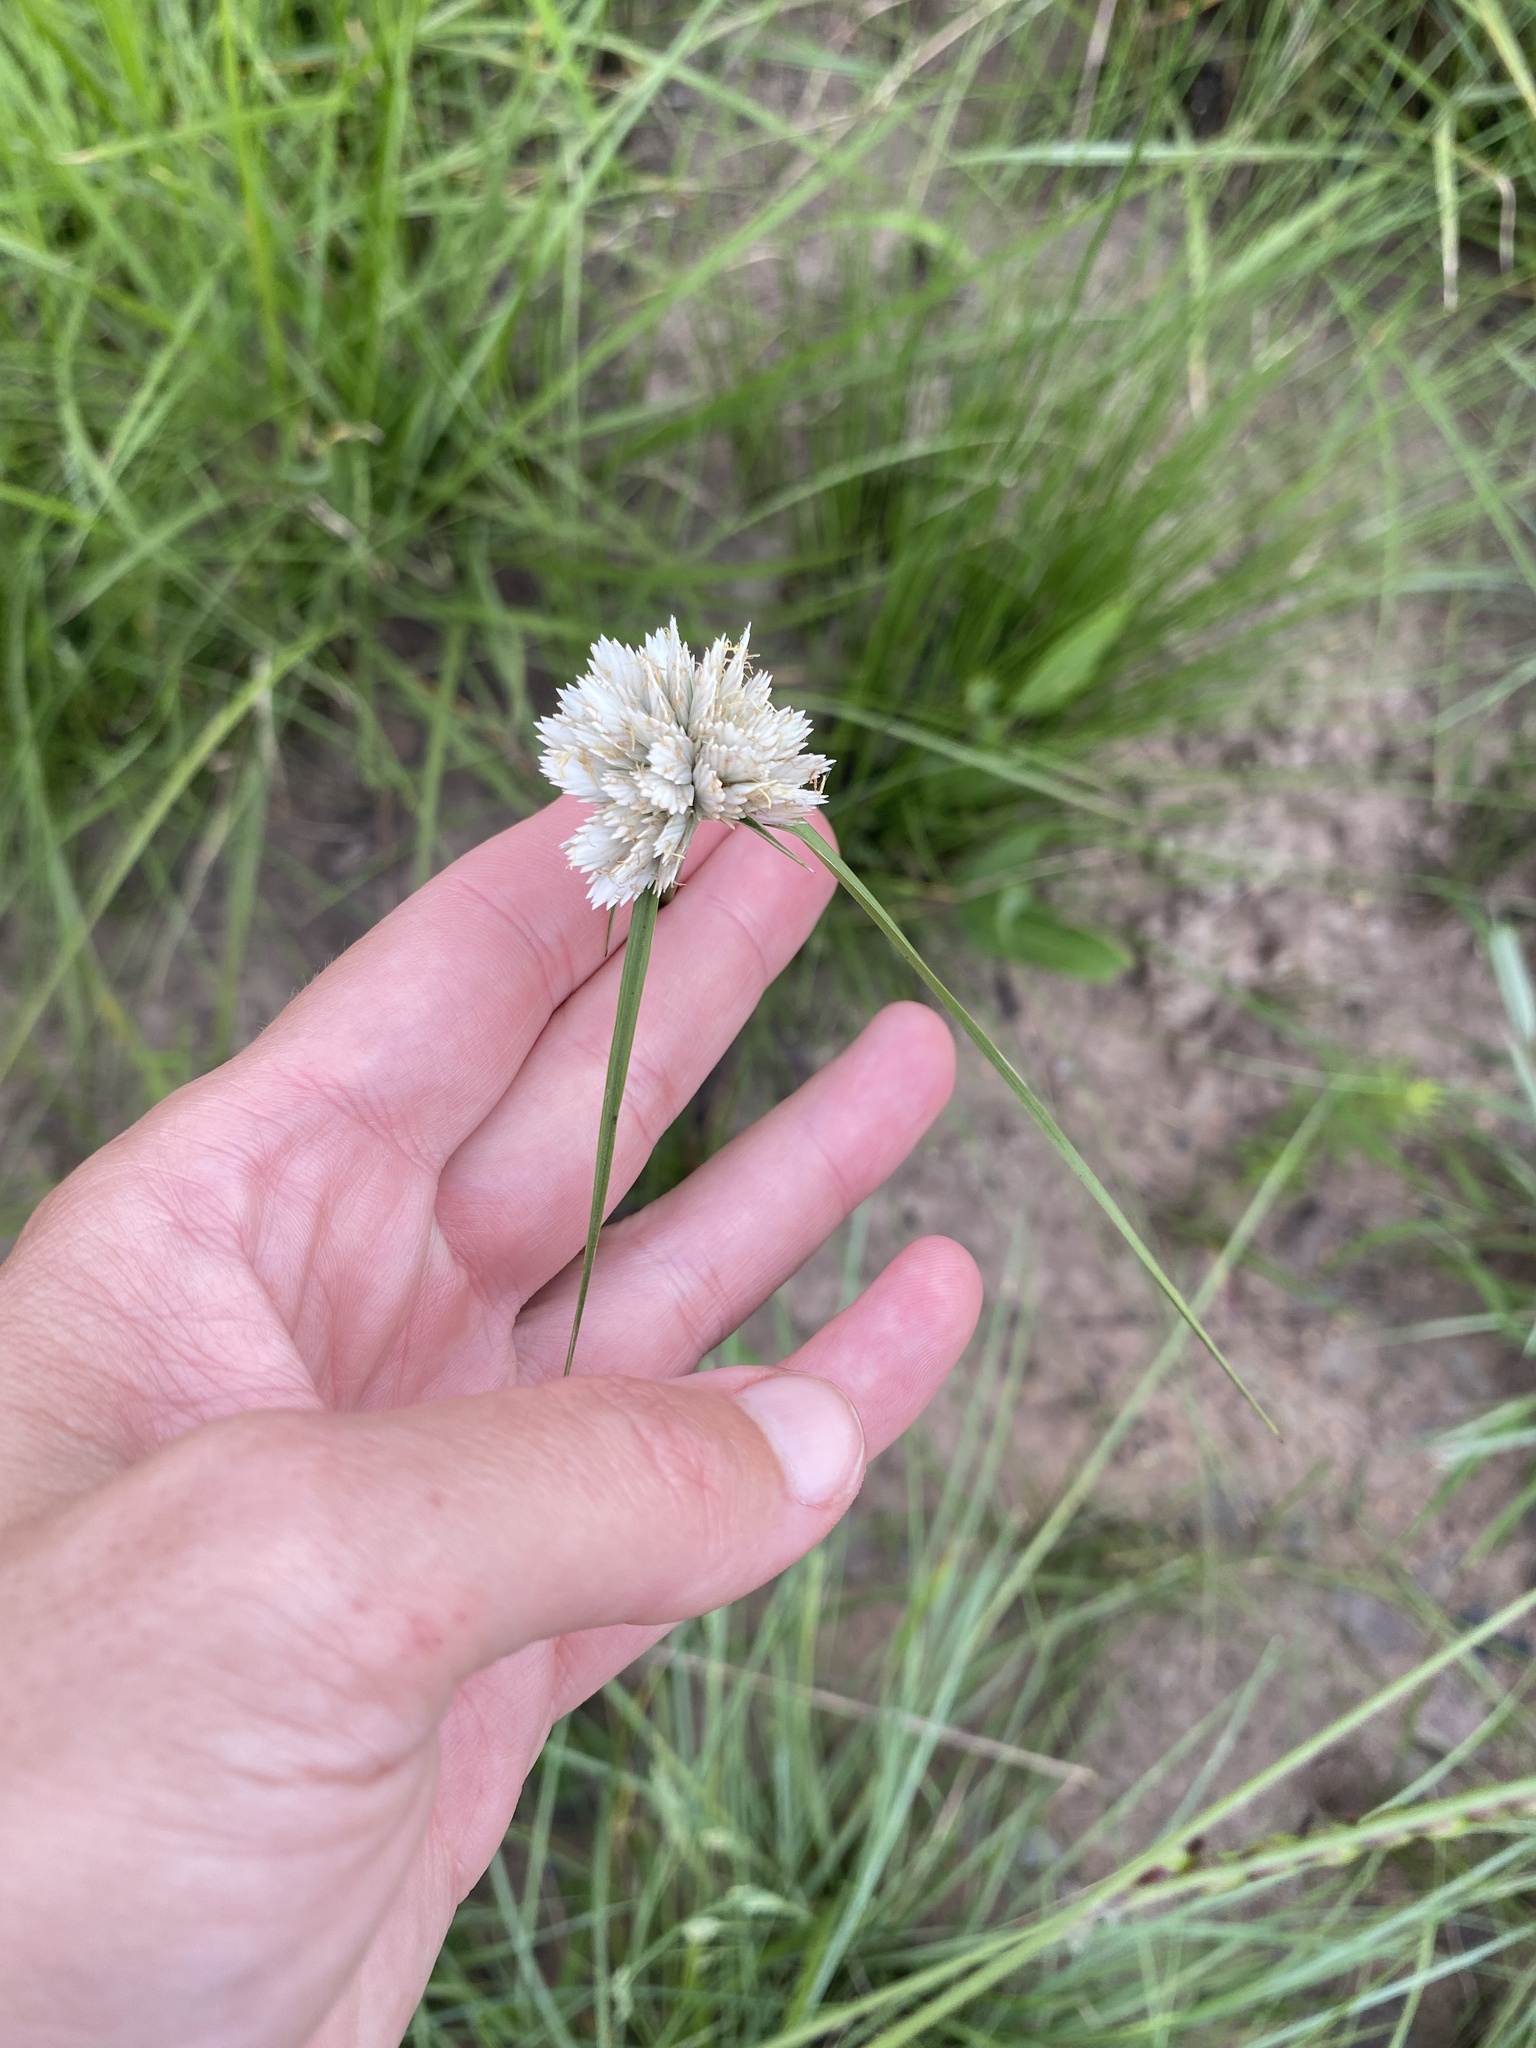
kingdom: Plantae
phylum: Tracheophyta
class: Liliopsida
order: Poales
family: Cyperaceae
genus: Cyperus
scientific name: Cyperus niveus
